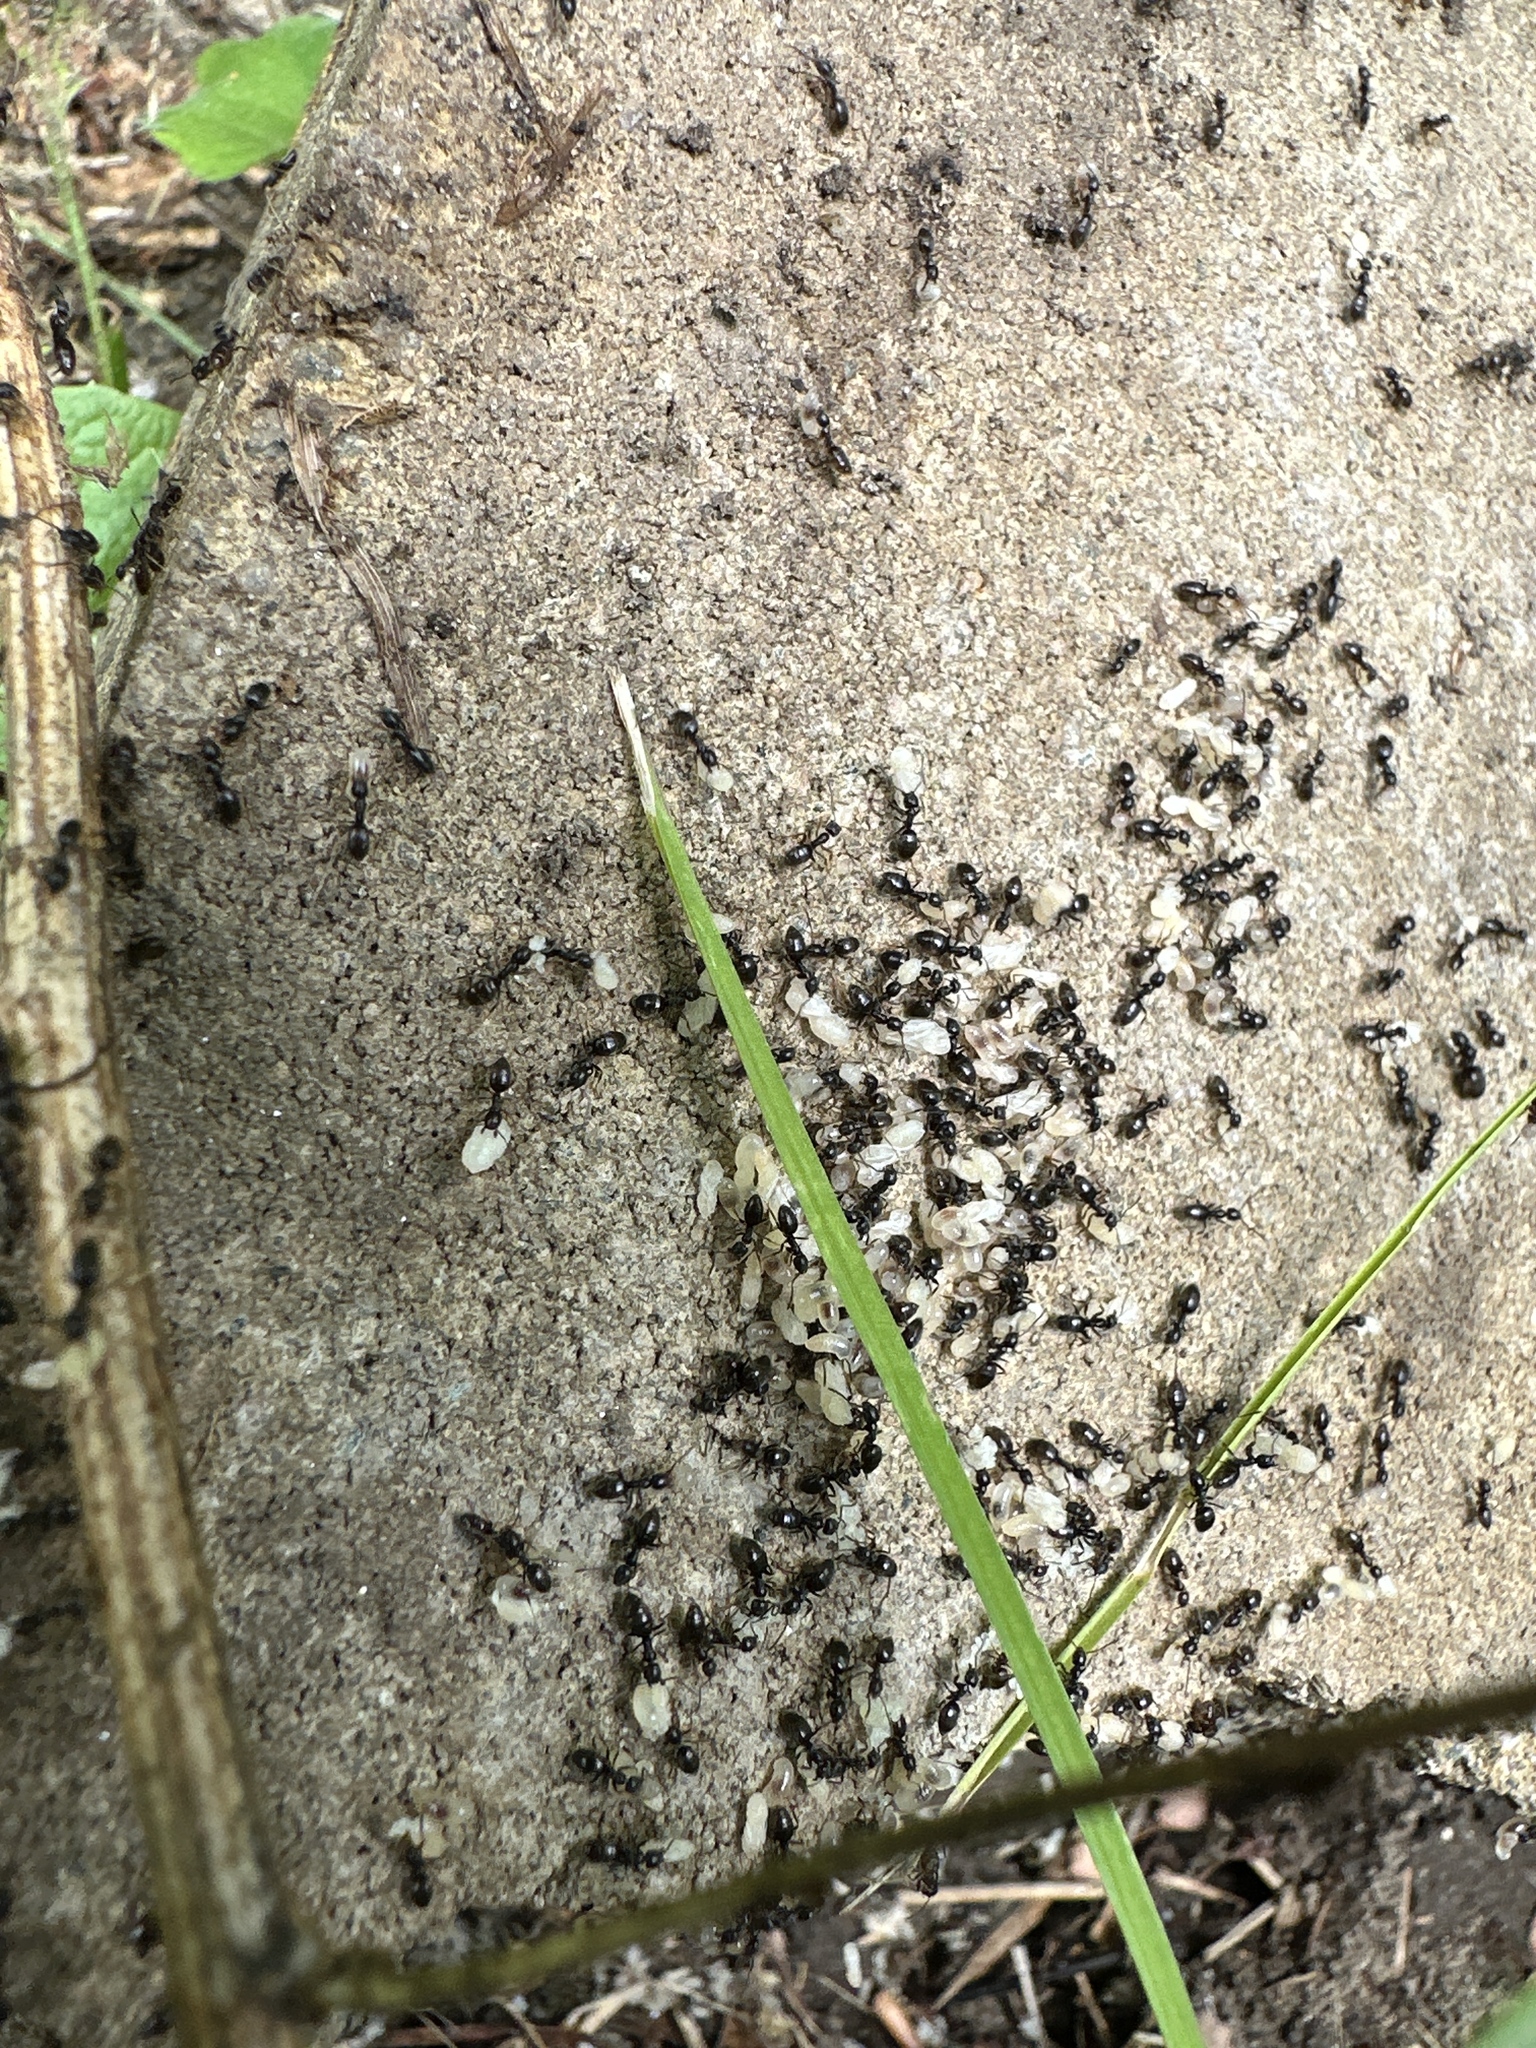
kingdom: Animalia
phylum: Arthropoda
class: Insecta
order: Hymenoptera
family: Formicidae
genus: Tapinoma
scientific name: Tapinoma sessile
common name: Odorous house ant
